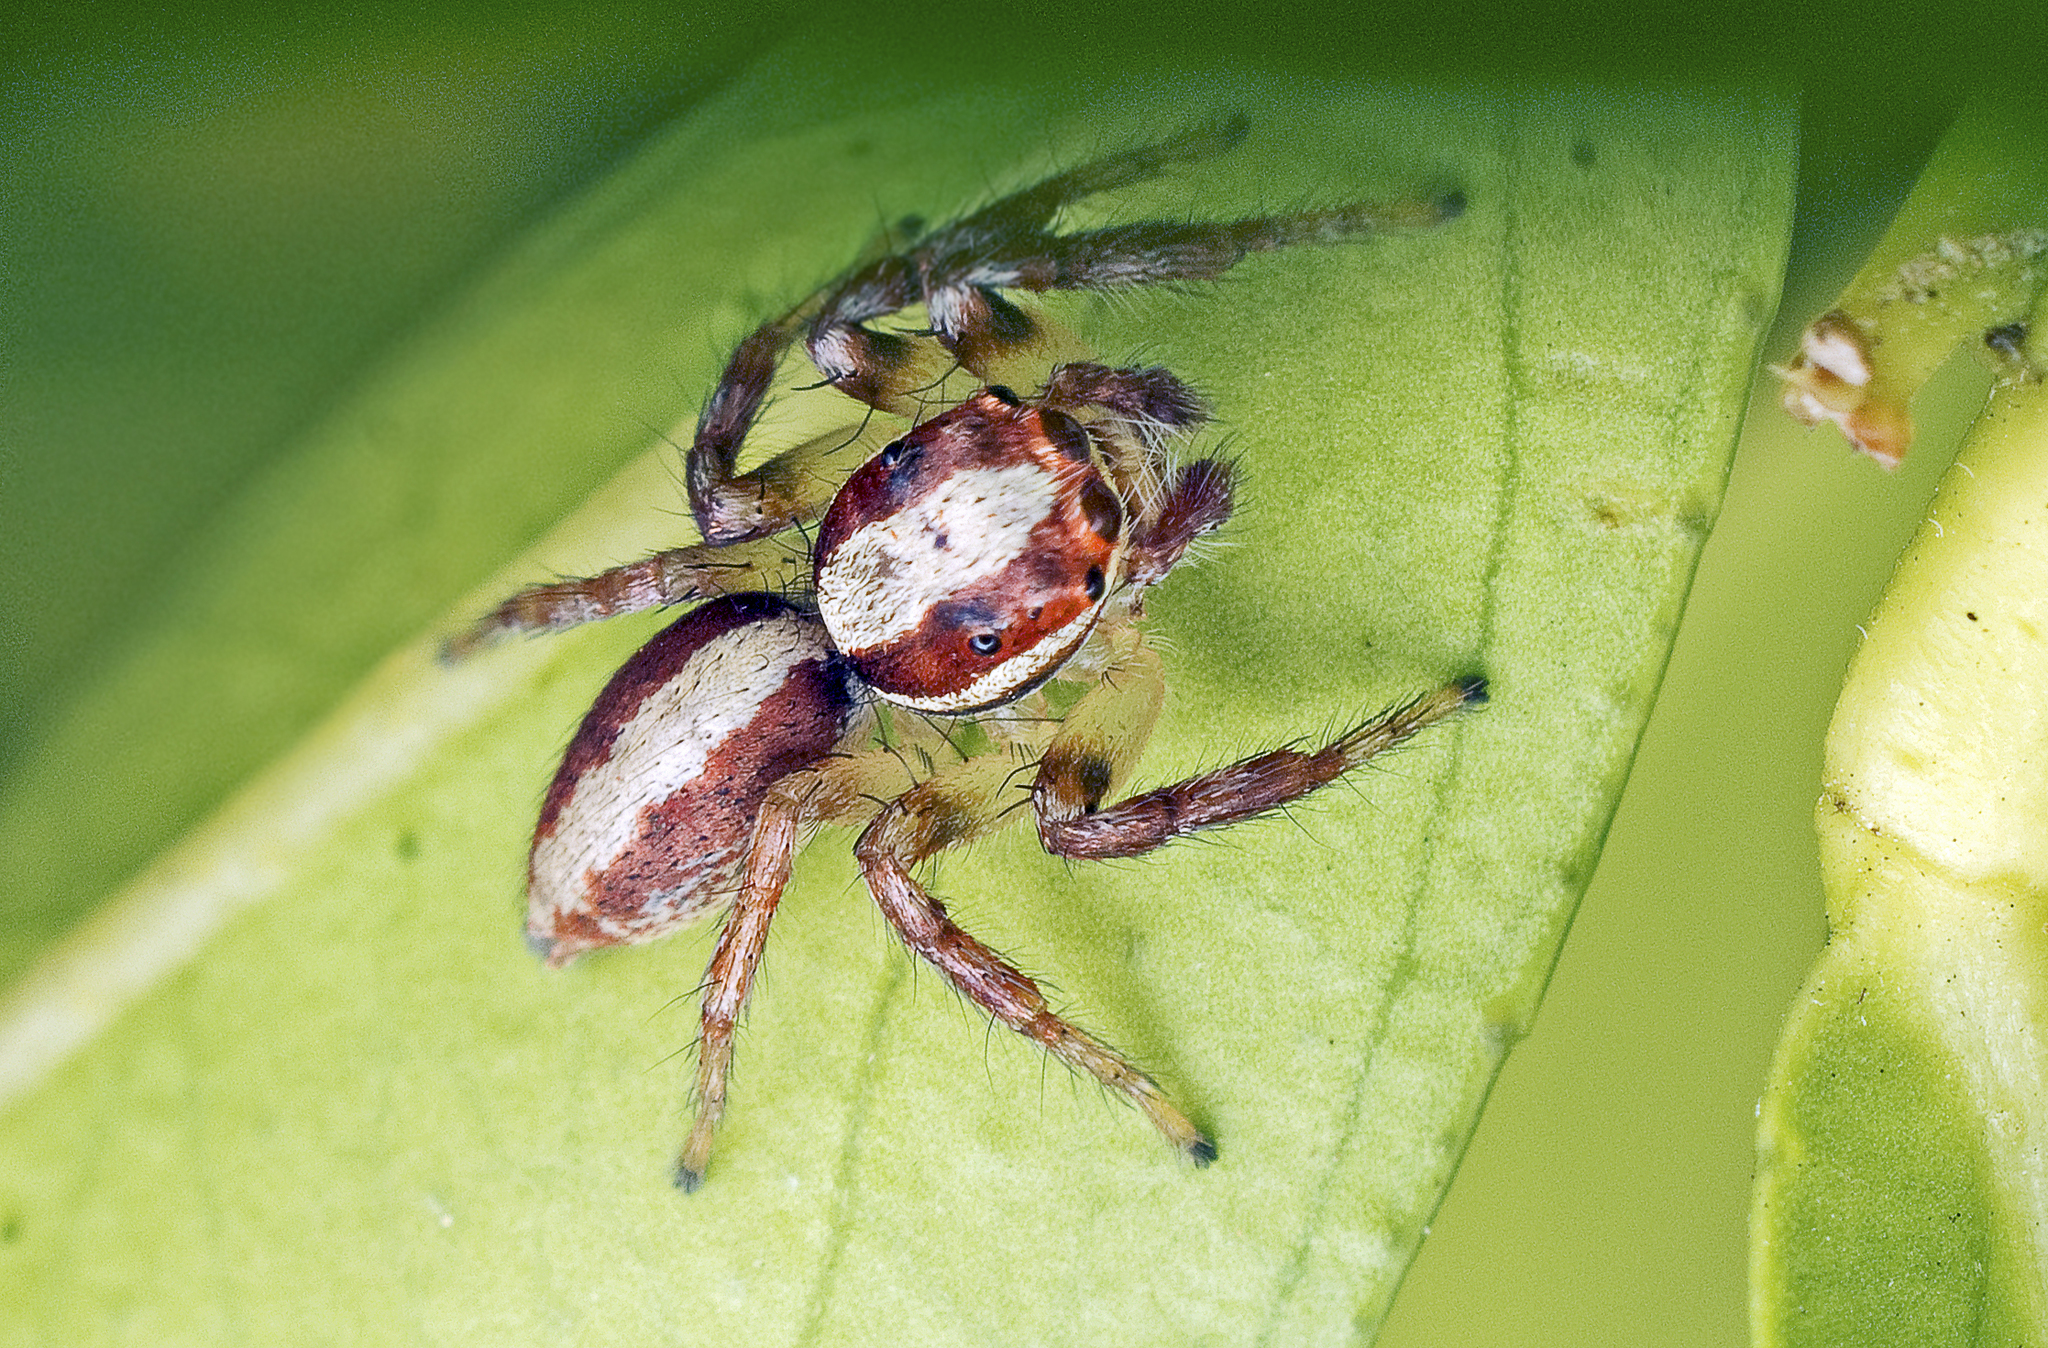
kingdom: Animalia
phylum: Arthropoda
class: Arachnida
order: Araneae
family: Salticidae
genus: Cytaea
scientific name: Cytaea alburna
